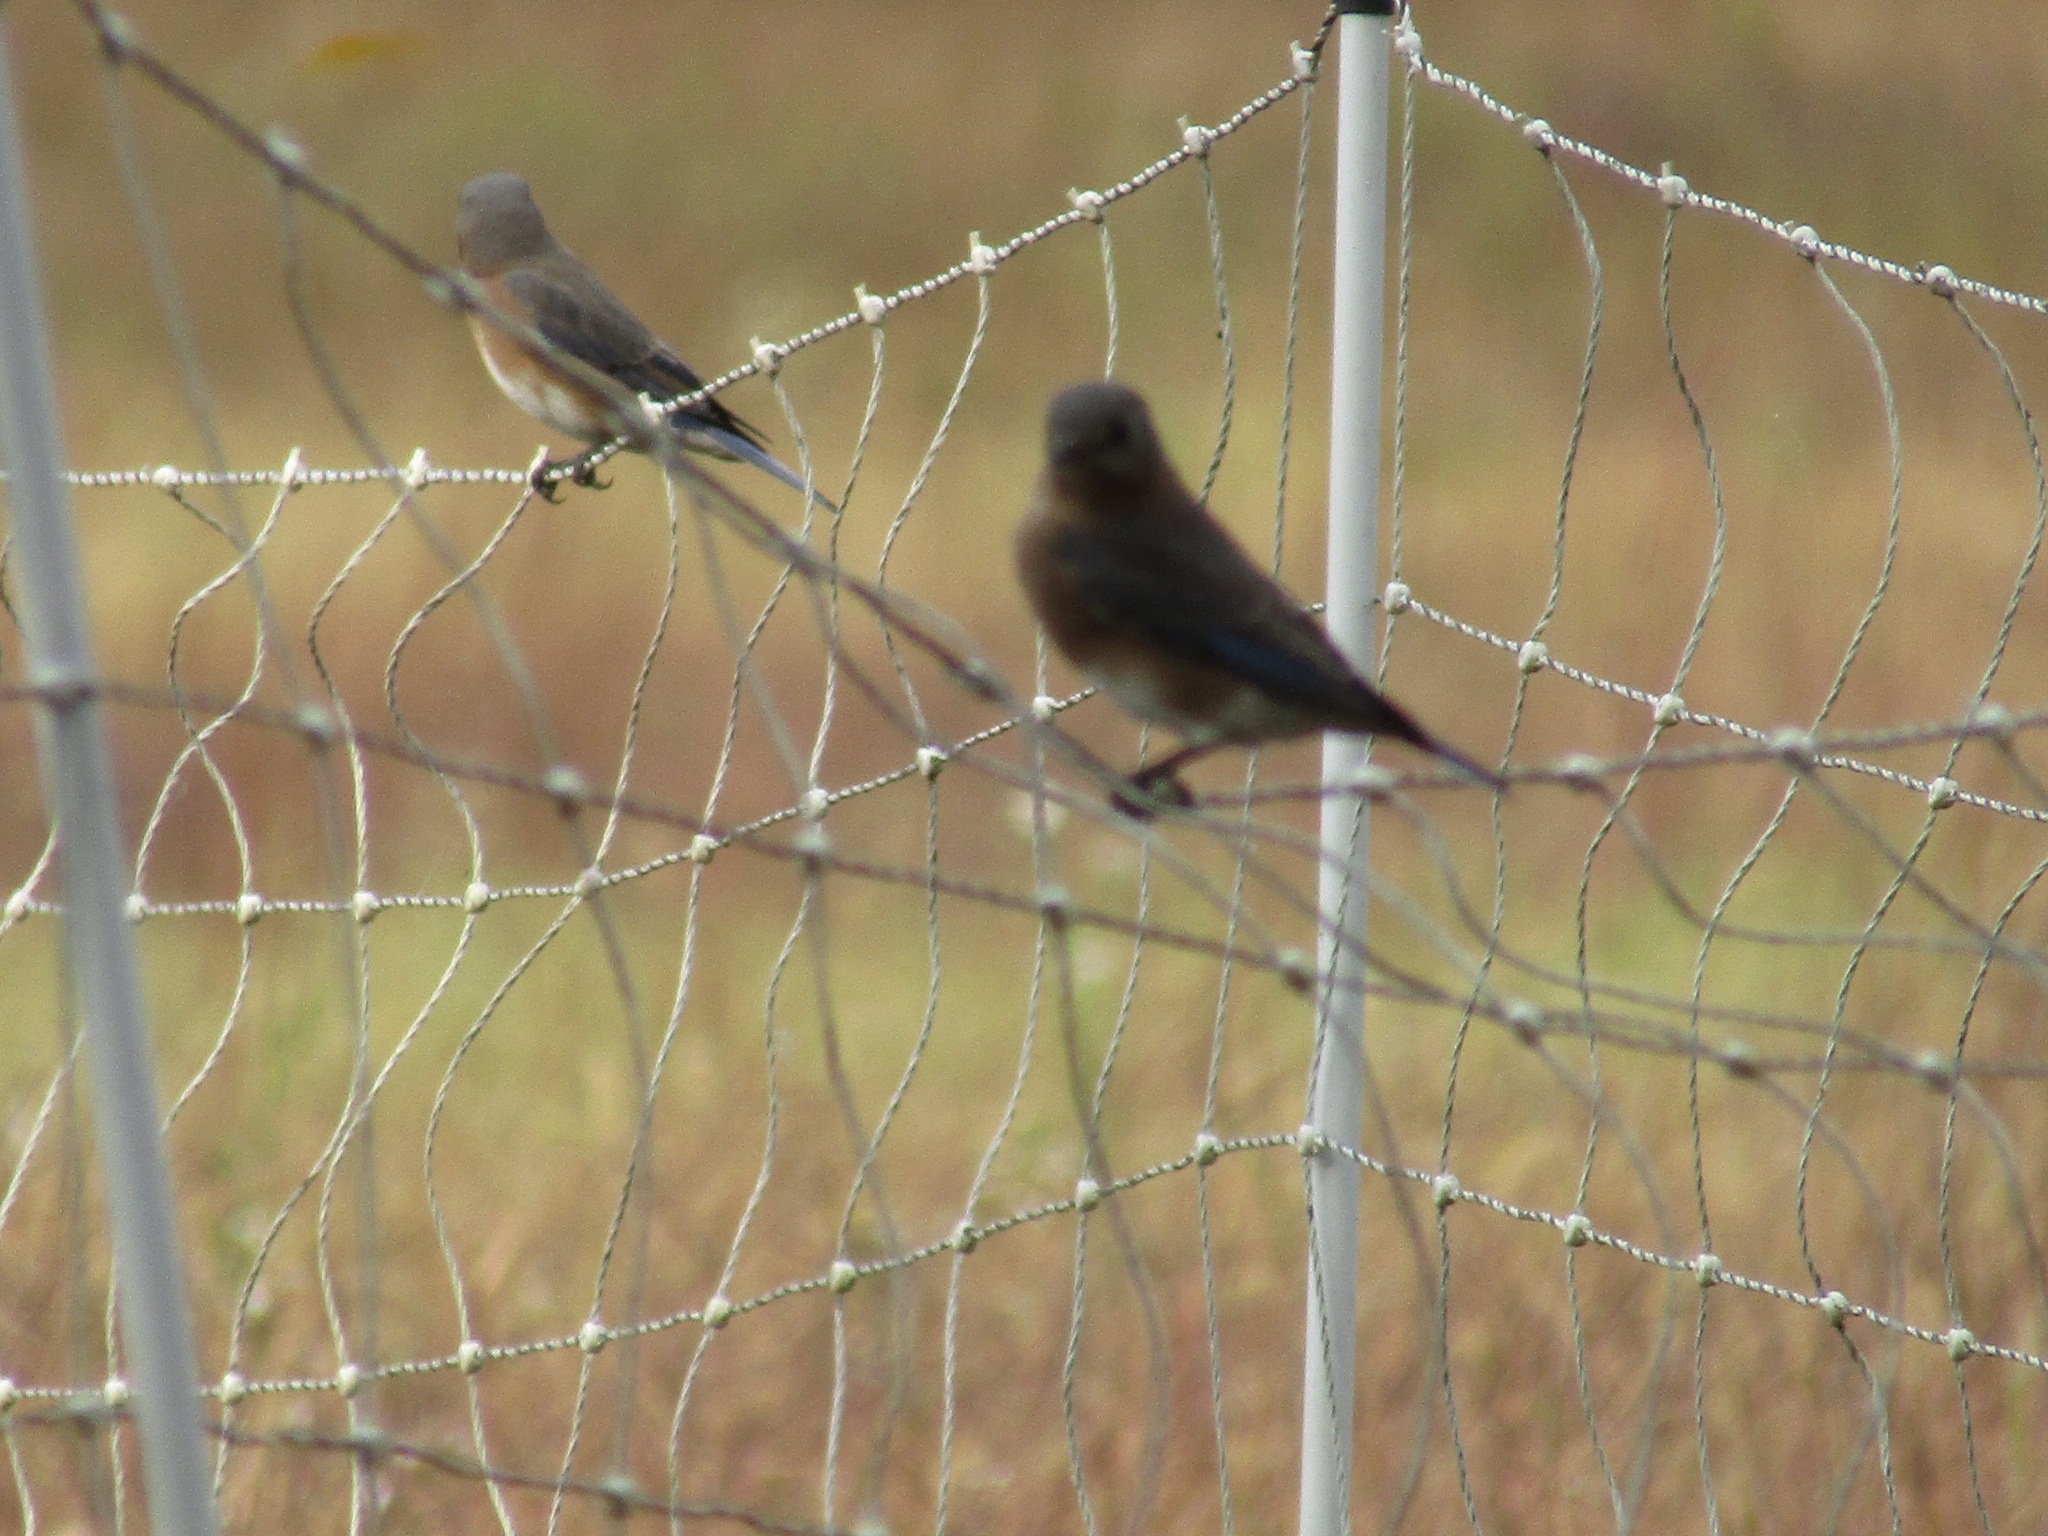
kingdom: Animalia
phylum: Chordata
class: Aves
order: Passeriformes
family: Turdidae
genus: Sialia
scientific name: Sialia sialis
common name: Eastern bluebird
